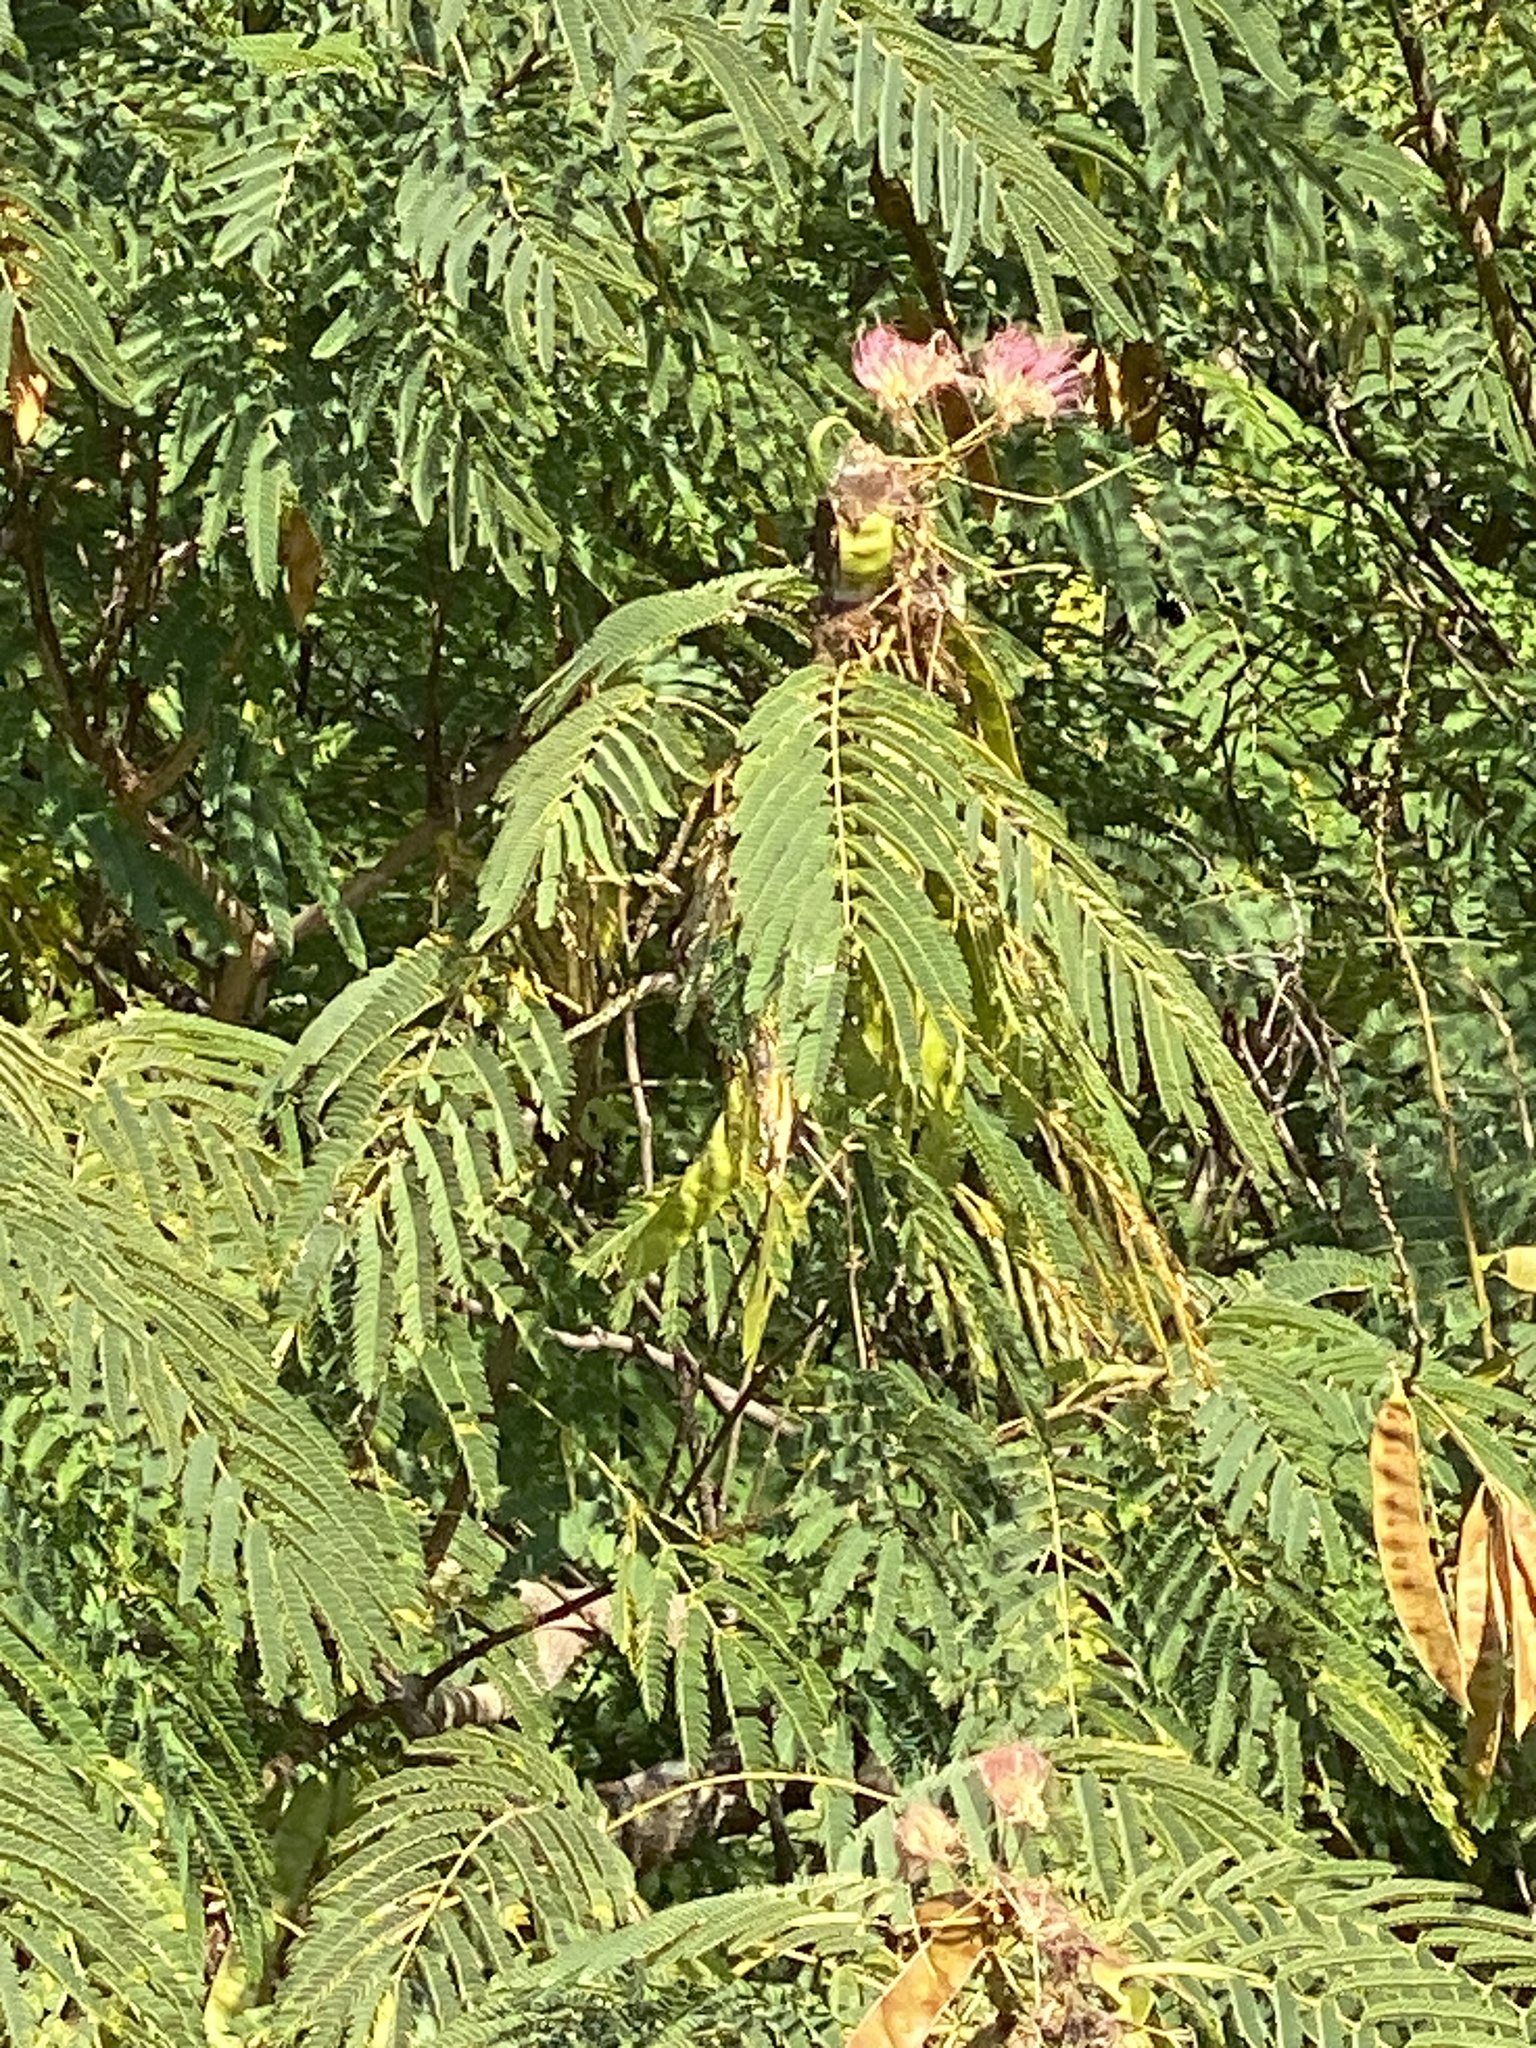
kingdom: Plantae
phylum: Tracheophyta
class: Magnoliopsida
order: Fabales
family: Fabaceae
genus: Albizia
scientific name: Albizia julibrissin
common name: Silktree
